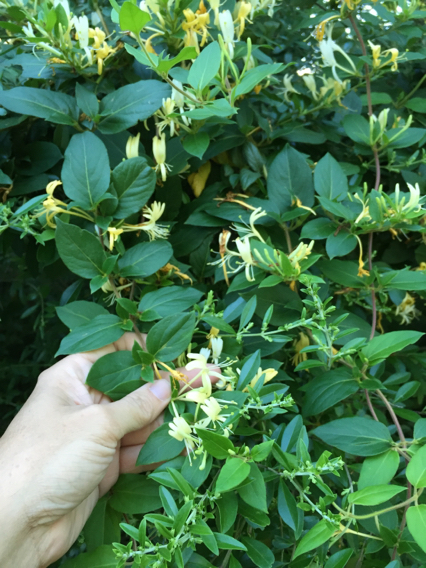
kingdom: Plantae
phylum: Tracheophyta
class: Magnoliopsida
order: Dipsacales
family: Caprifoliaceae
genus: Lonicera
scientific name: Lonicera japonica
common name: Japanese honeysuckle
